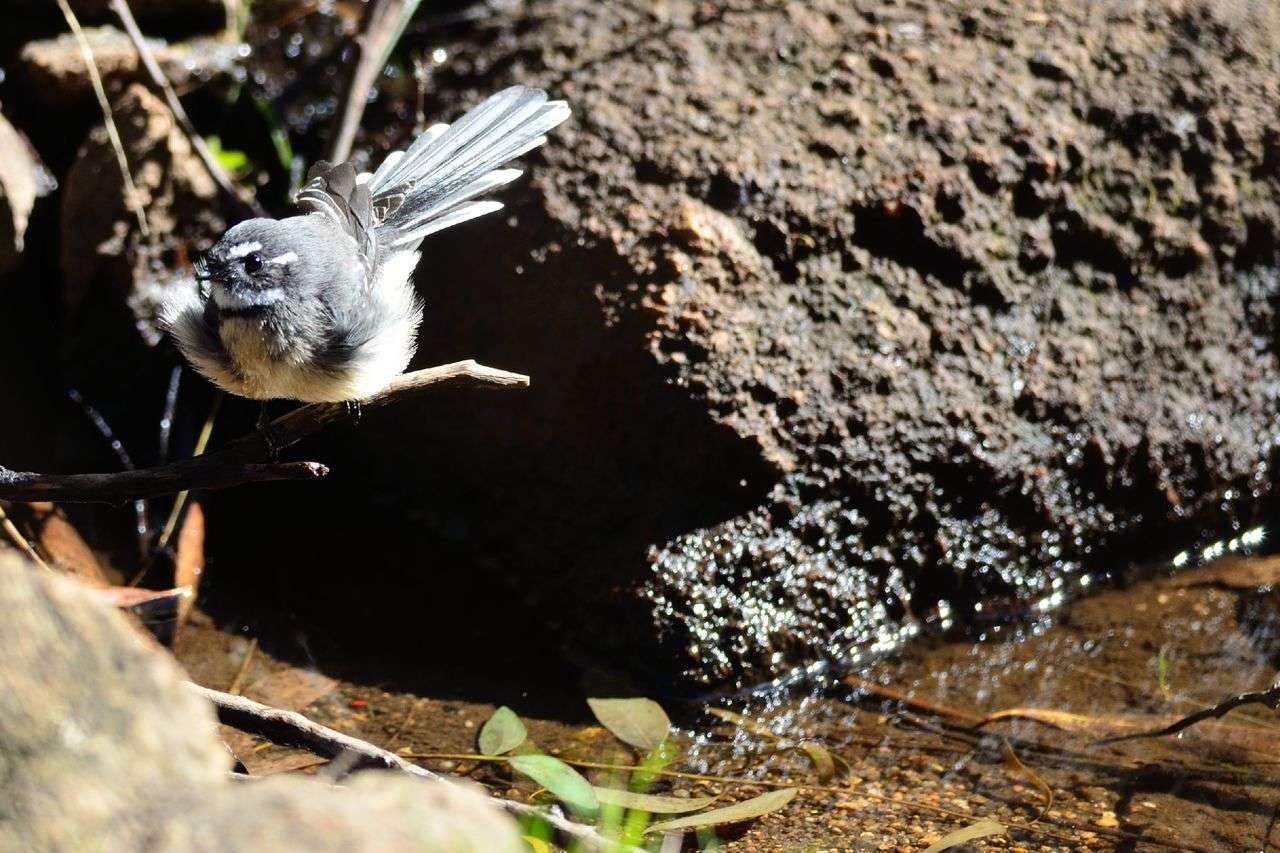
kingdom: Animalia
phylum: Chordata
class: Aves
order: Passeriformes
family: Rhipiduridae
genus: Rhipidura
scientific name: Rhipidura albiscapa
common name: Grey fantail
